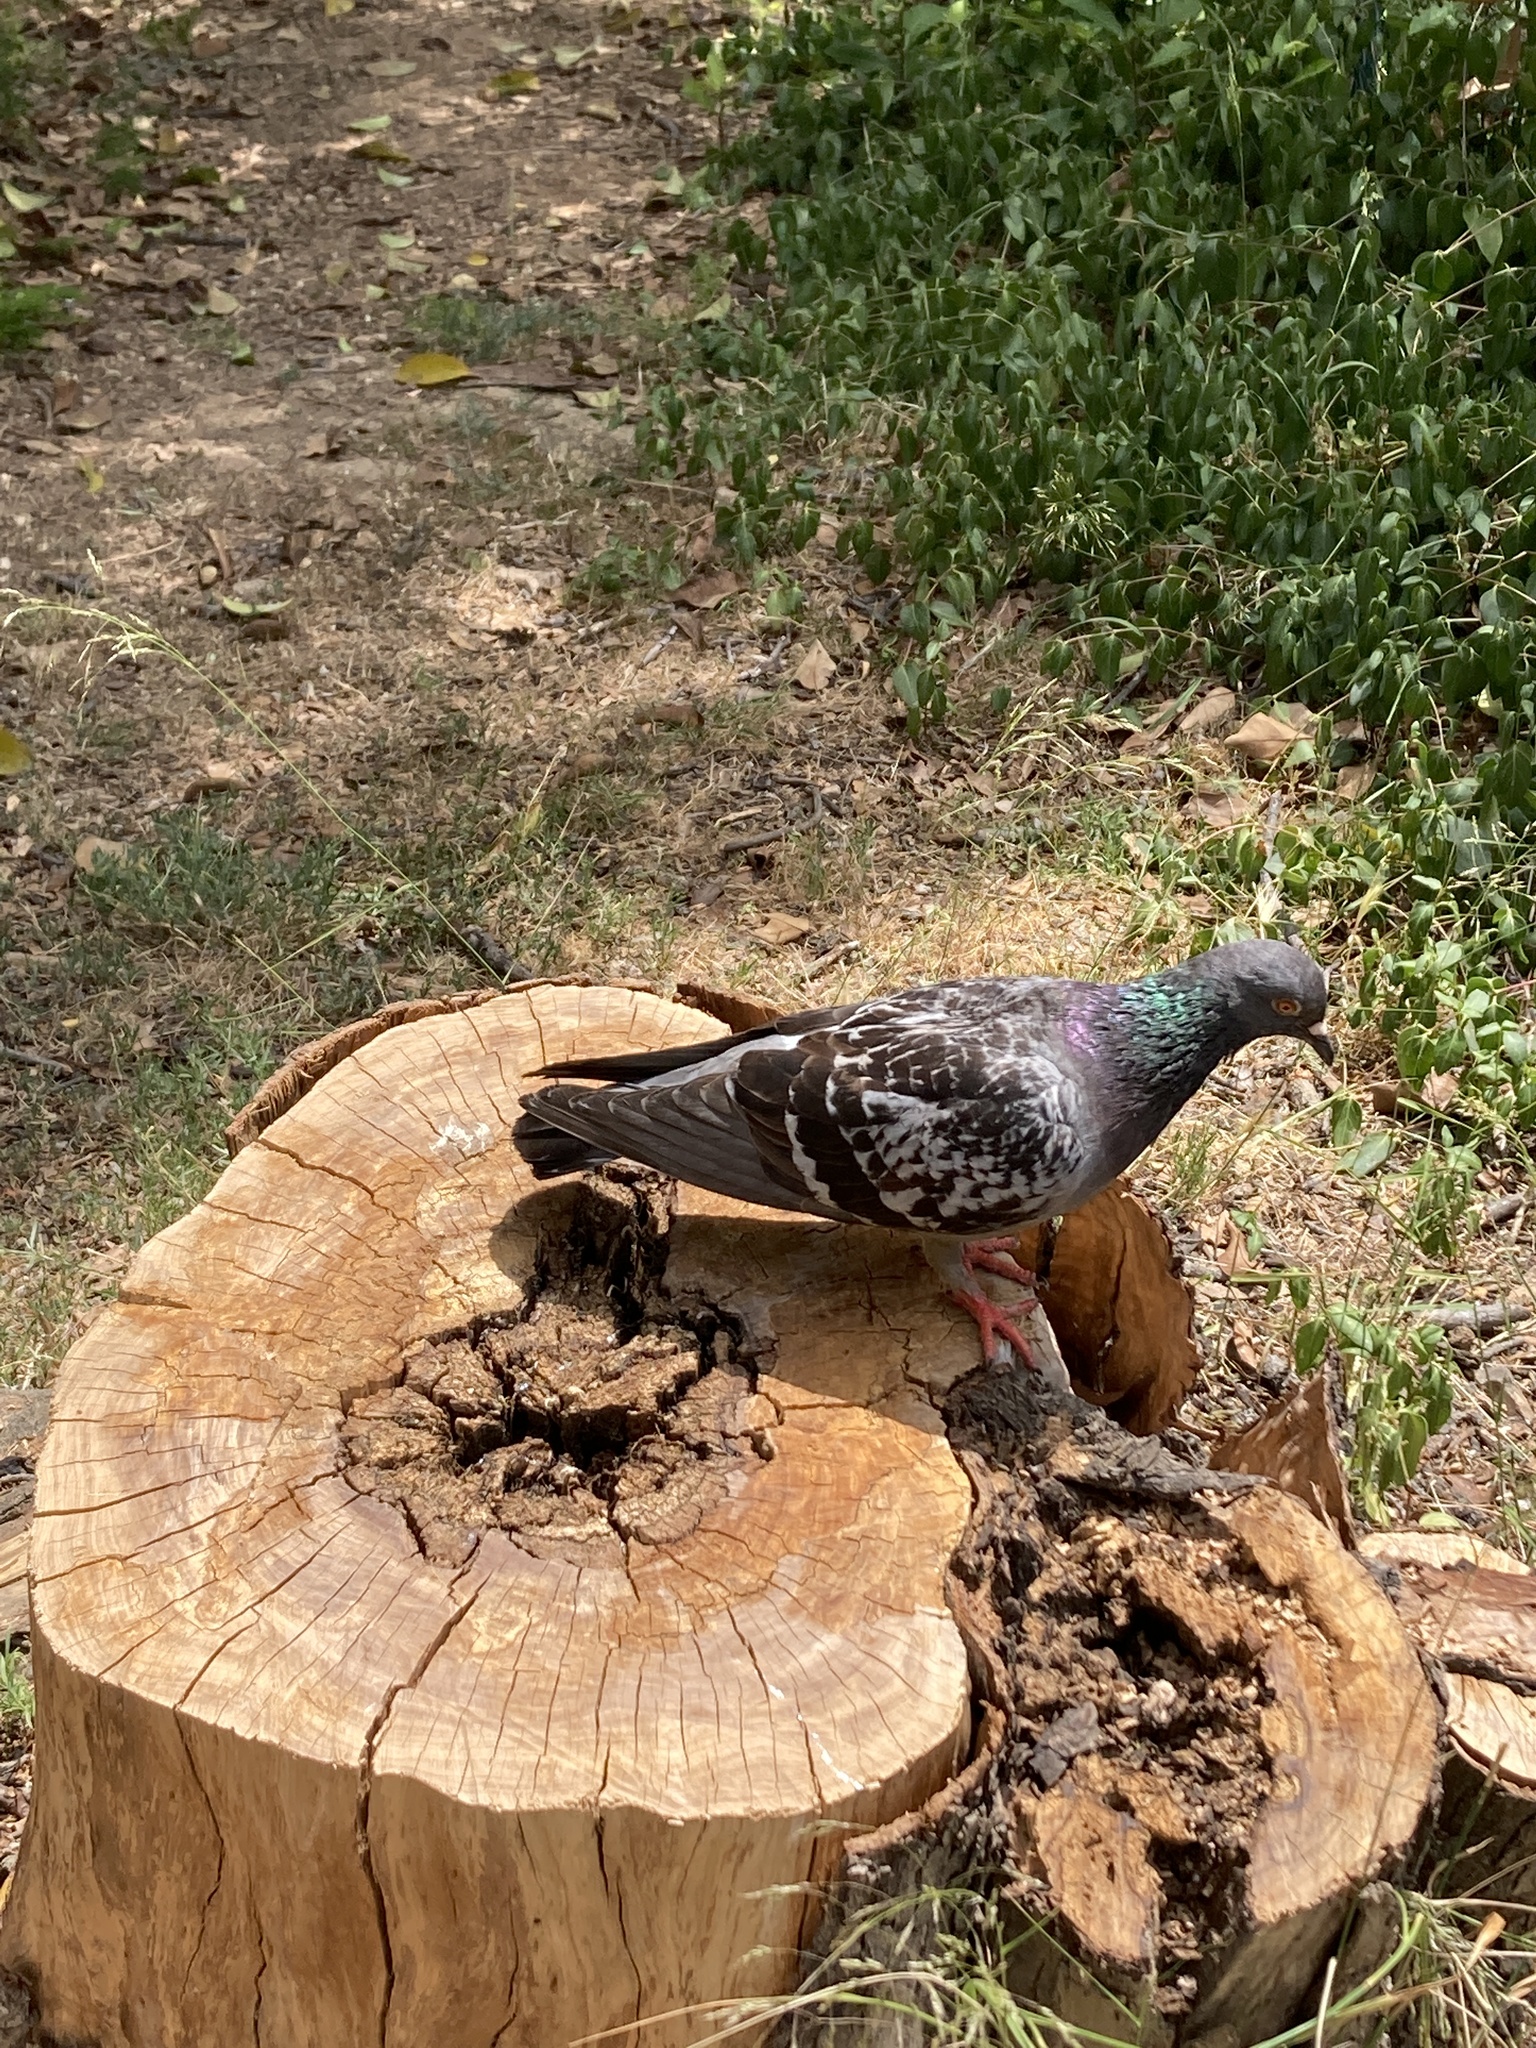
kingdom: Animalia
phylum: Chordata
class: Aves
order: Columbiformes
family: Columbidae
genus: Columba
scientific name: Columba livia
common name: Rock pigeon
